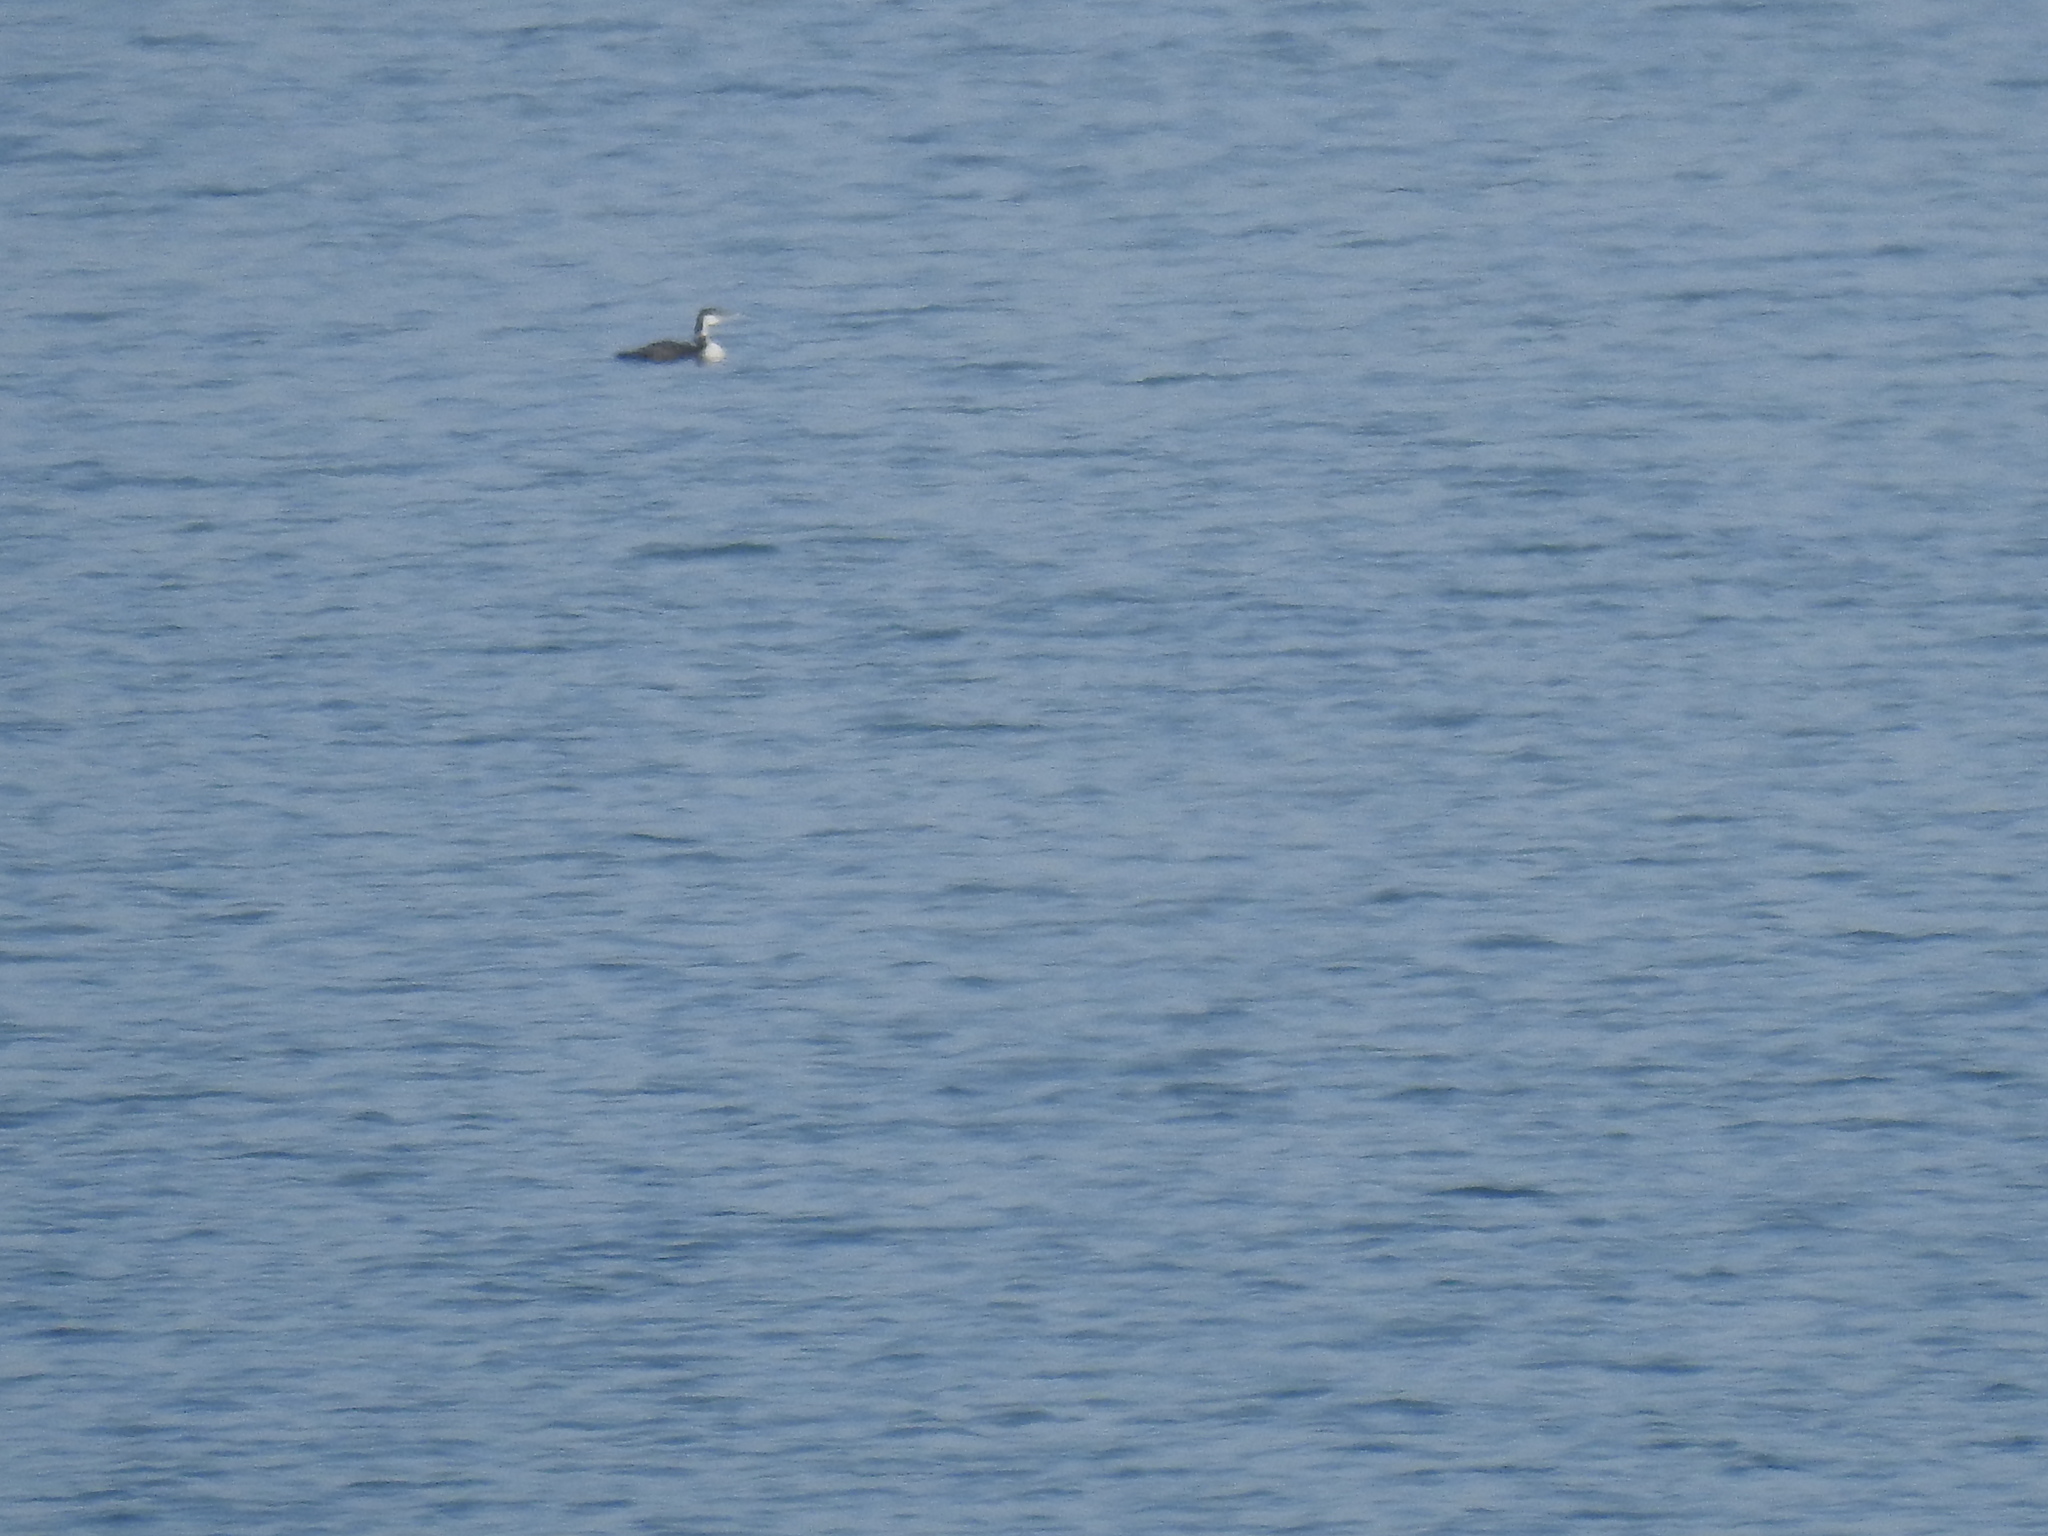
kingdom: Animalia
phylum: Chordata
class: Aves
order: Gaviiformes
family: Gaviidae
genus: Gavia
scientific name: Gavia immer
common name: Common loon
